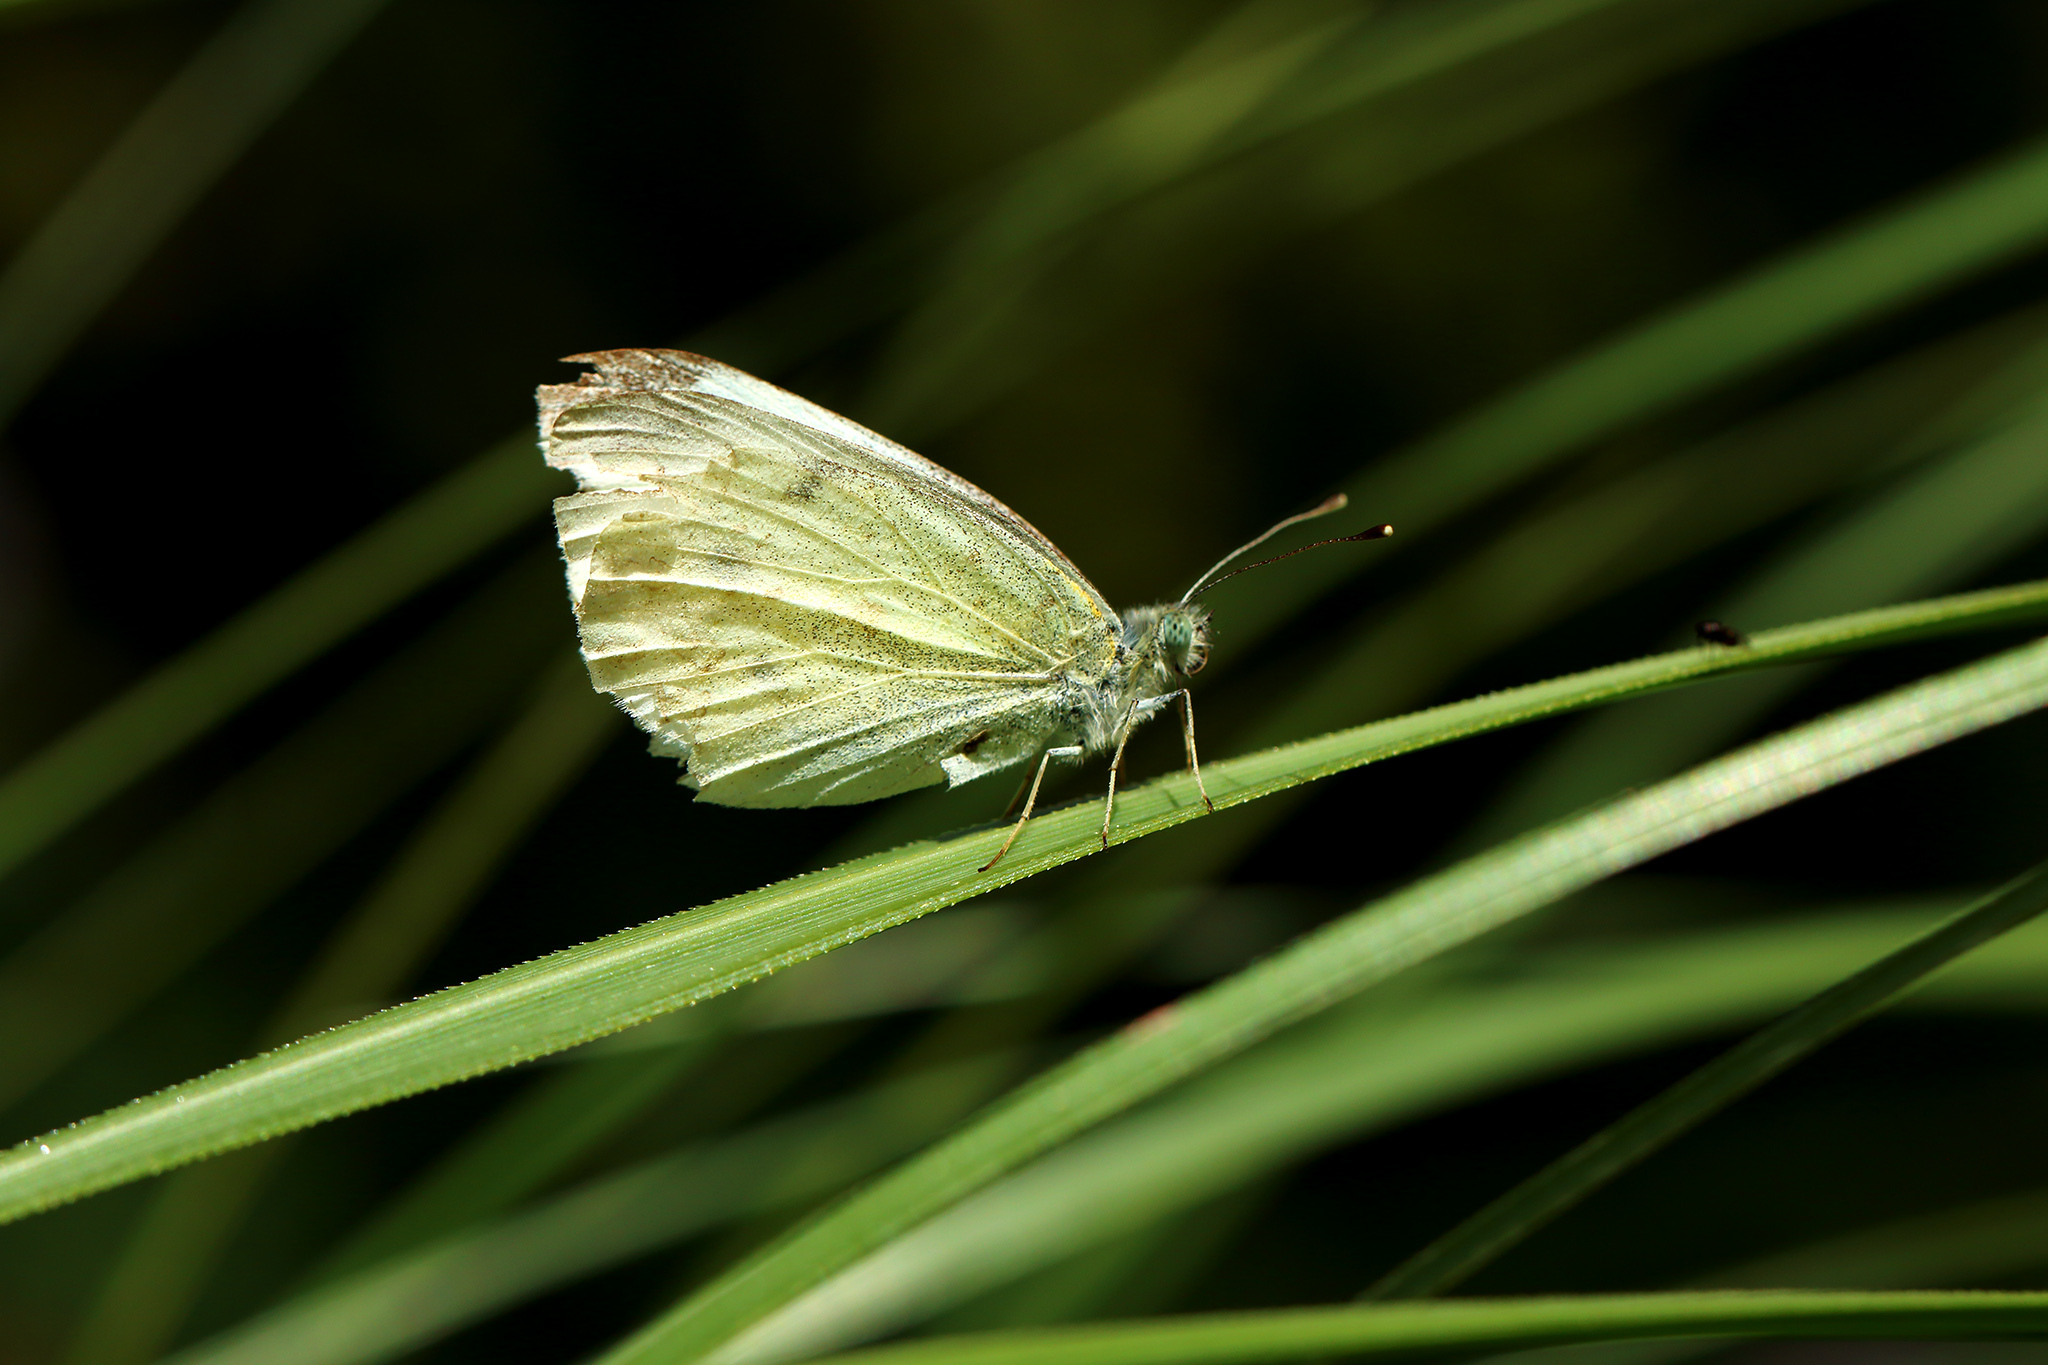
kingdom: Animalia
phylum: Arthropoda
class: Insecta
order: Lepidoptera
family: Pieridae
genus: Pieris
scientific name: Pieris rapae
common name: Small white
